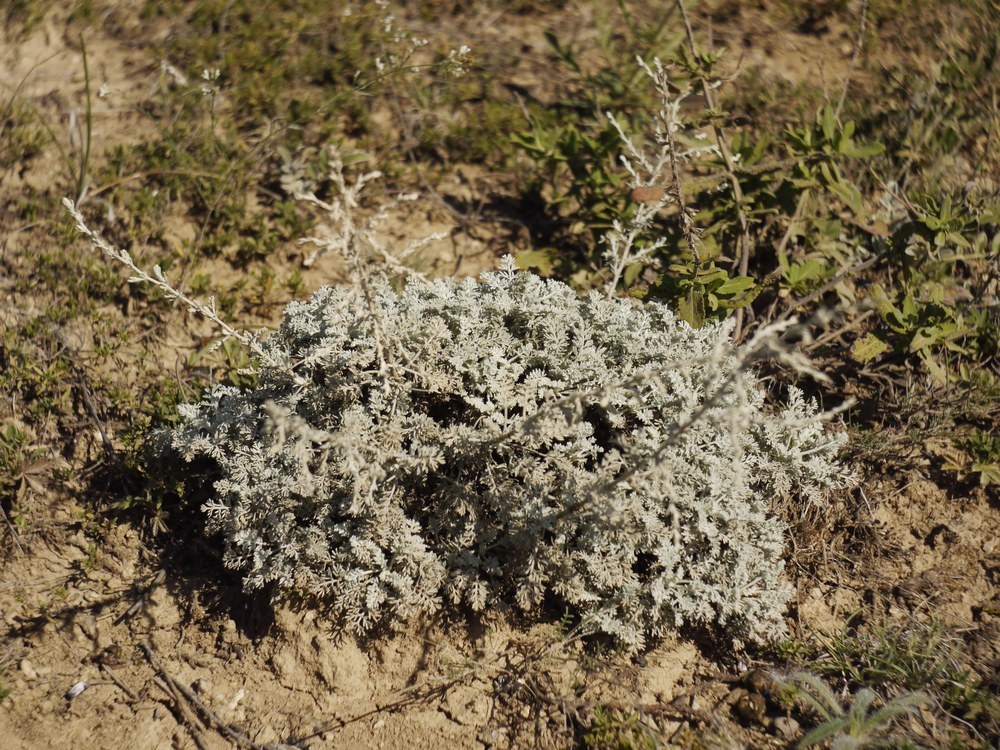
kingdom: Plantae
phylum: Tracheophyta
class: Magnoliopsida
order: Asterales
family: Asteraceae
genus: Artemisia
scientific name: Artemisia fragrans
